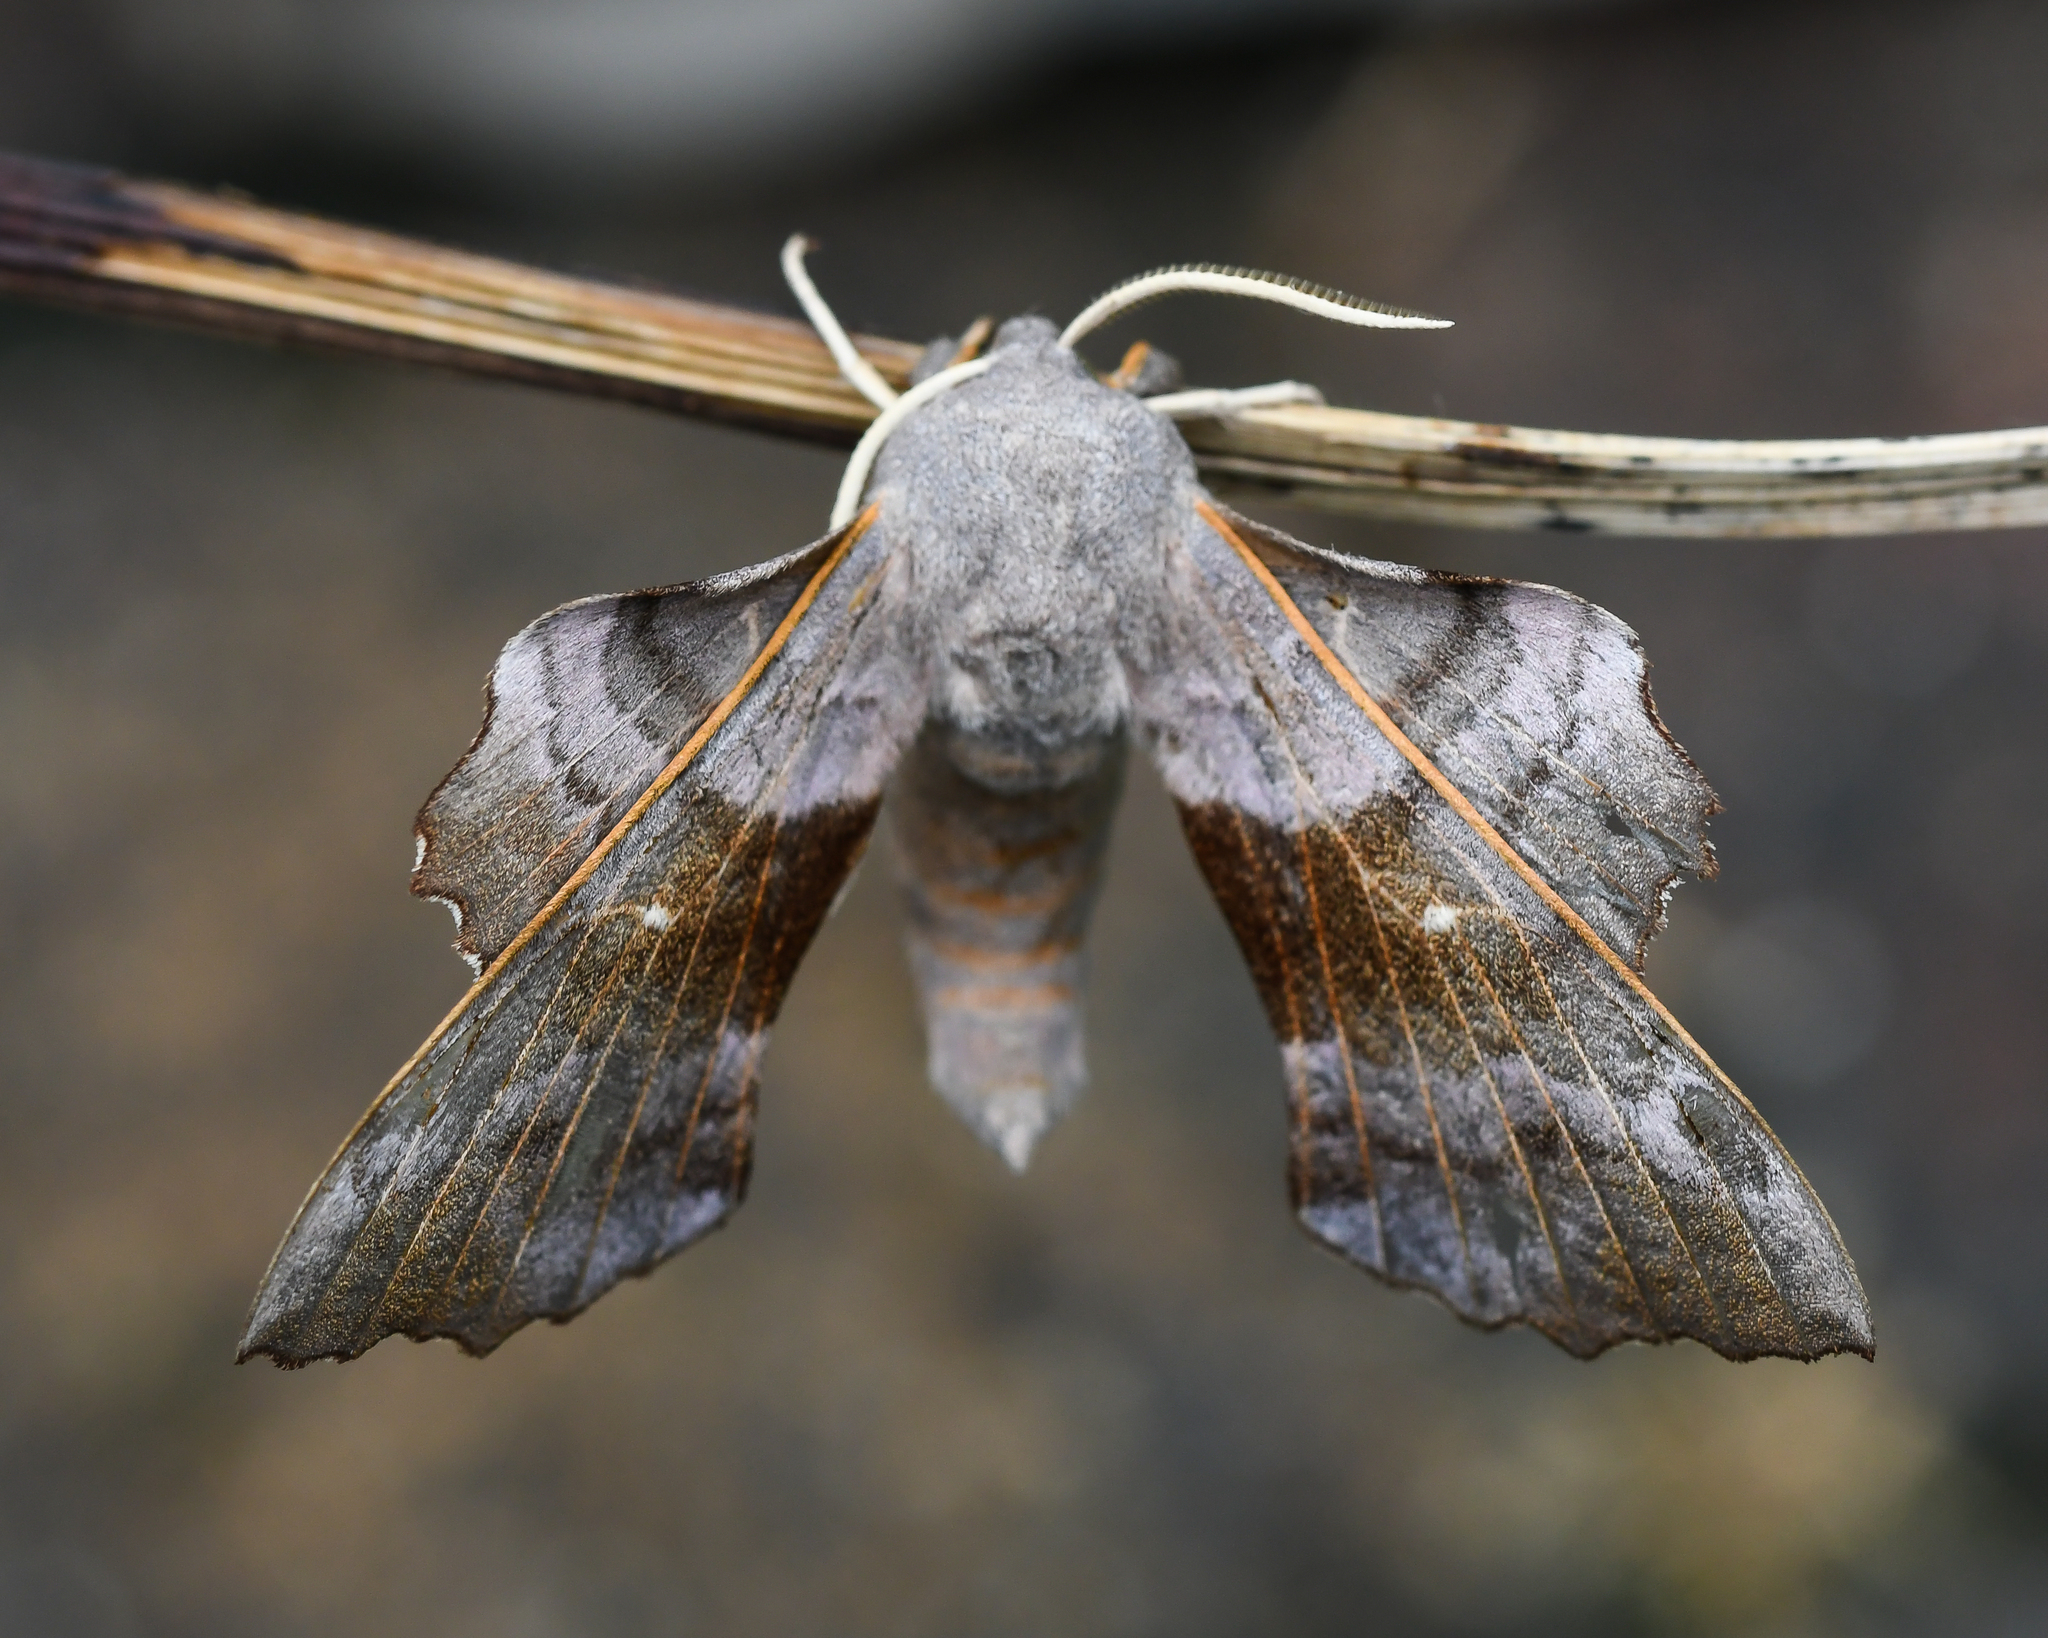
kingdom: Animalia
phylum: Arthropoda
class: Insecta
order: Lepidoptera
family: Sphingidae
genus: Laothoe
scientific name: Laothoe populi
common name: Poplar hawk-moth
